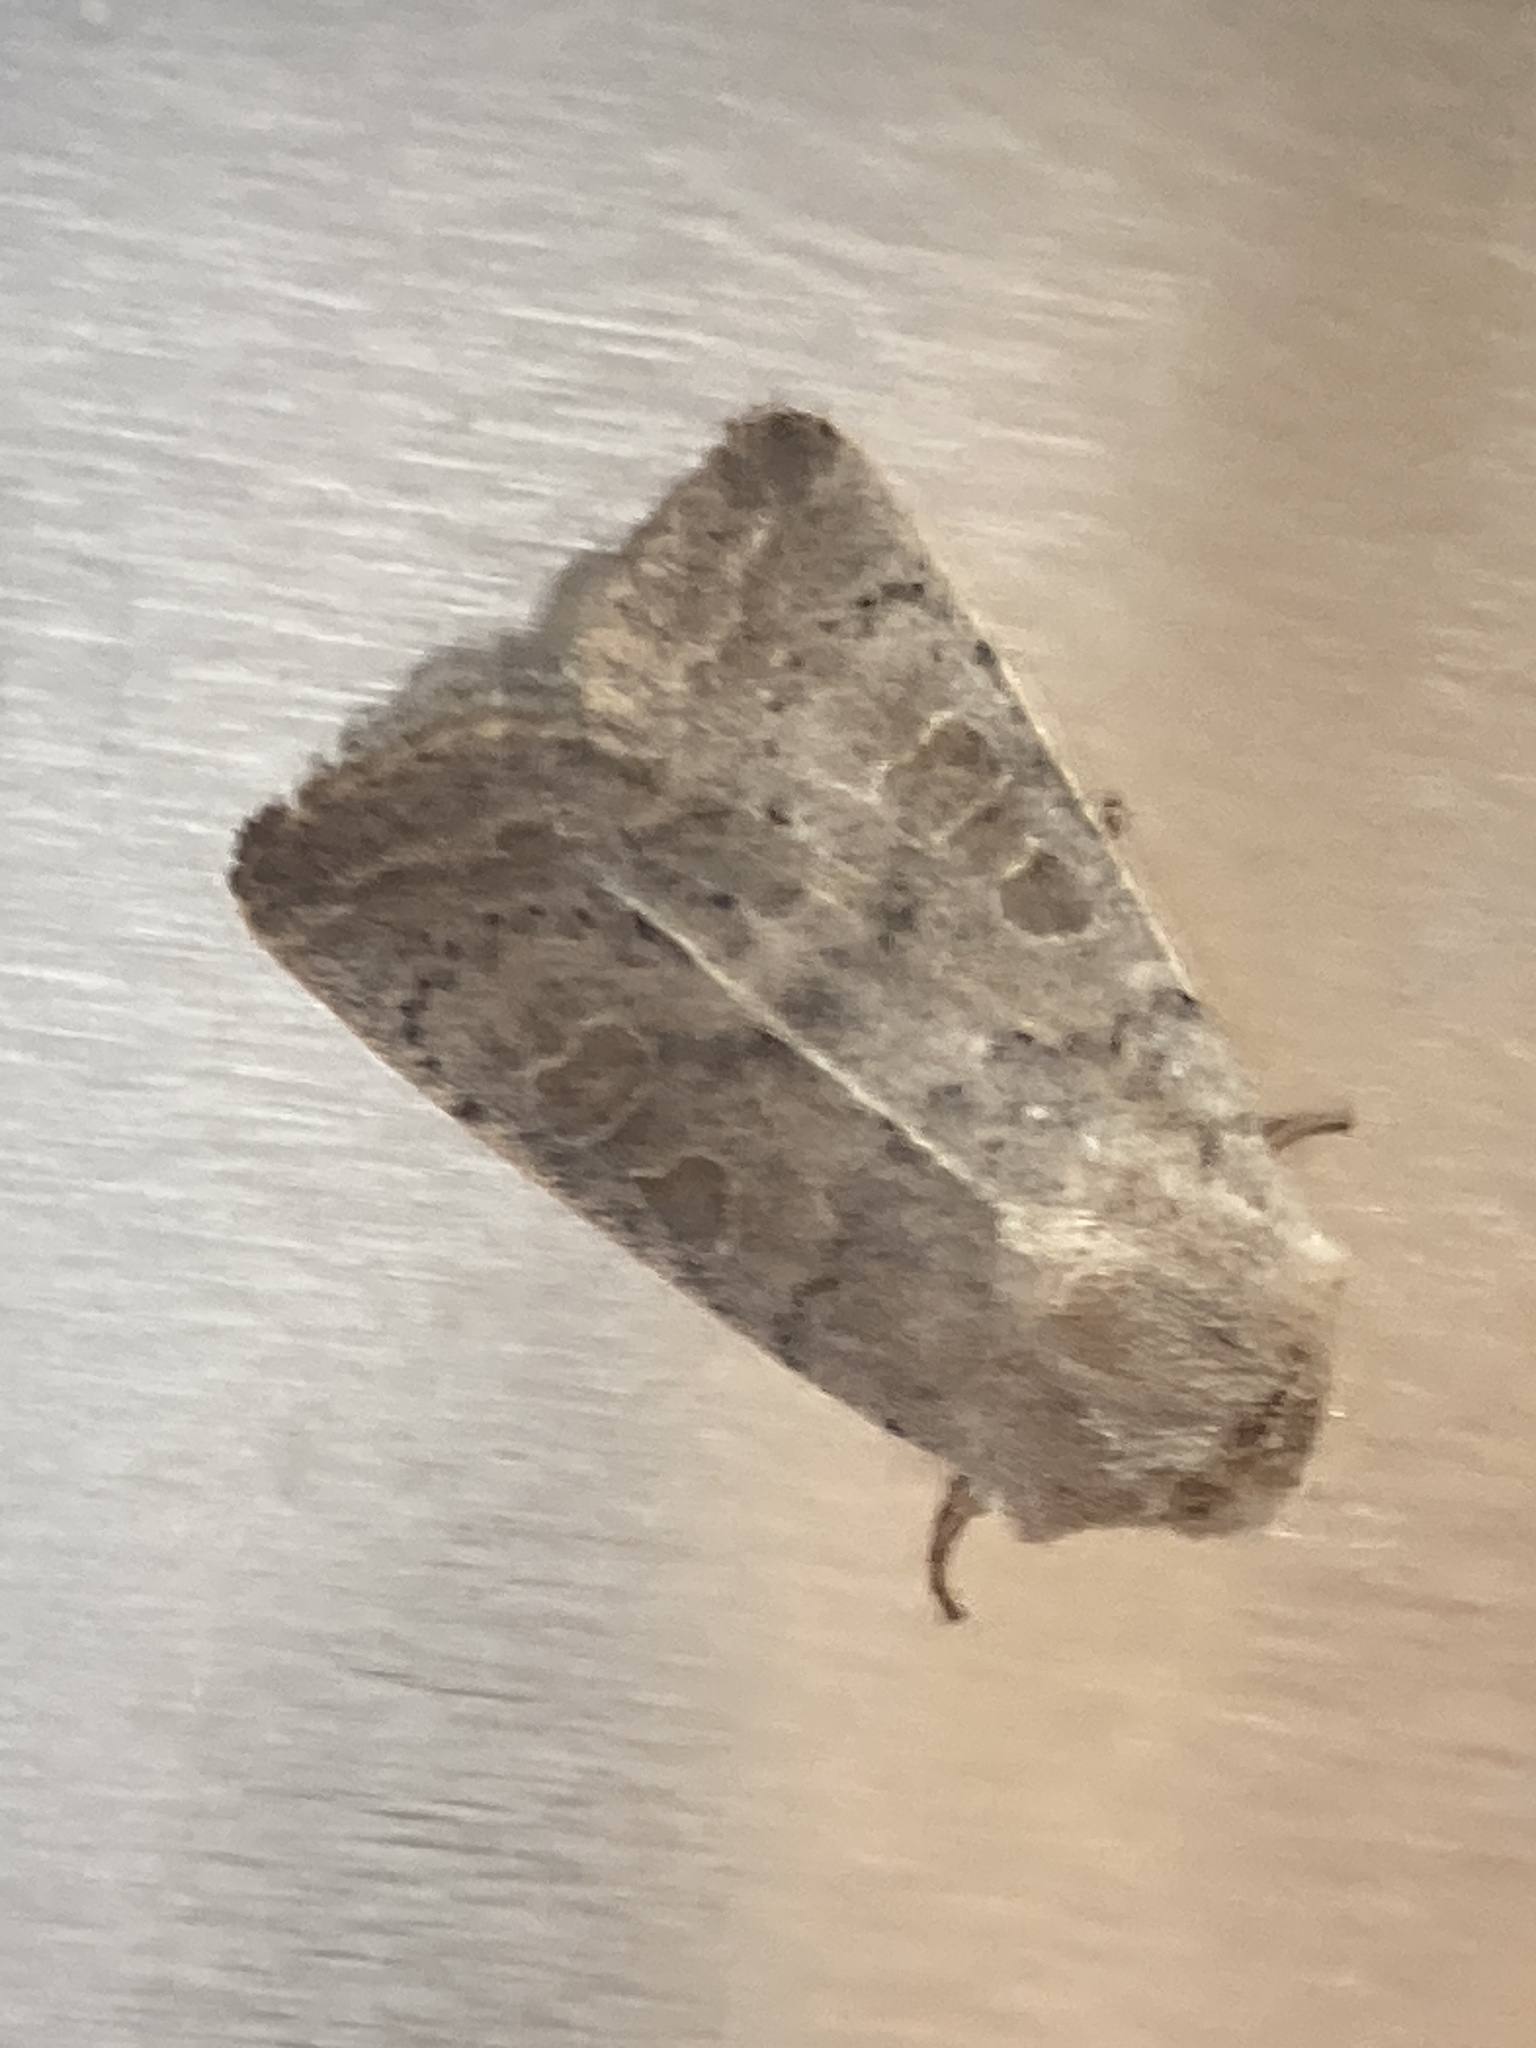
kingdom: Animalia
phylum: Arthropoda
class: Insecta
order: Lepidoptera
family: Noctuidae
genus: Hoplodrina
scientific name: Hoplodrina ambigua
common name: Vine's rustic
